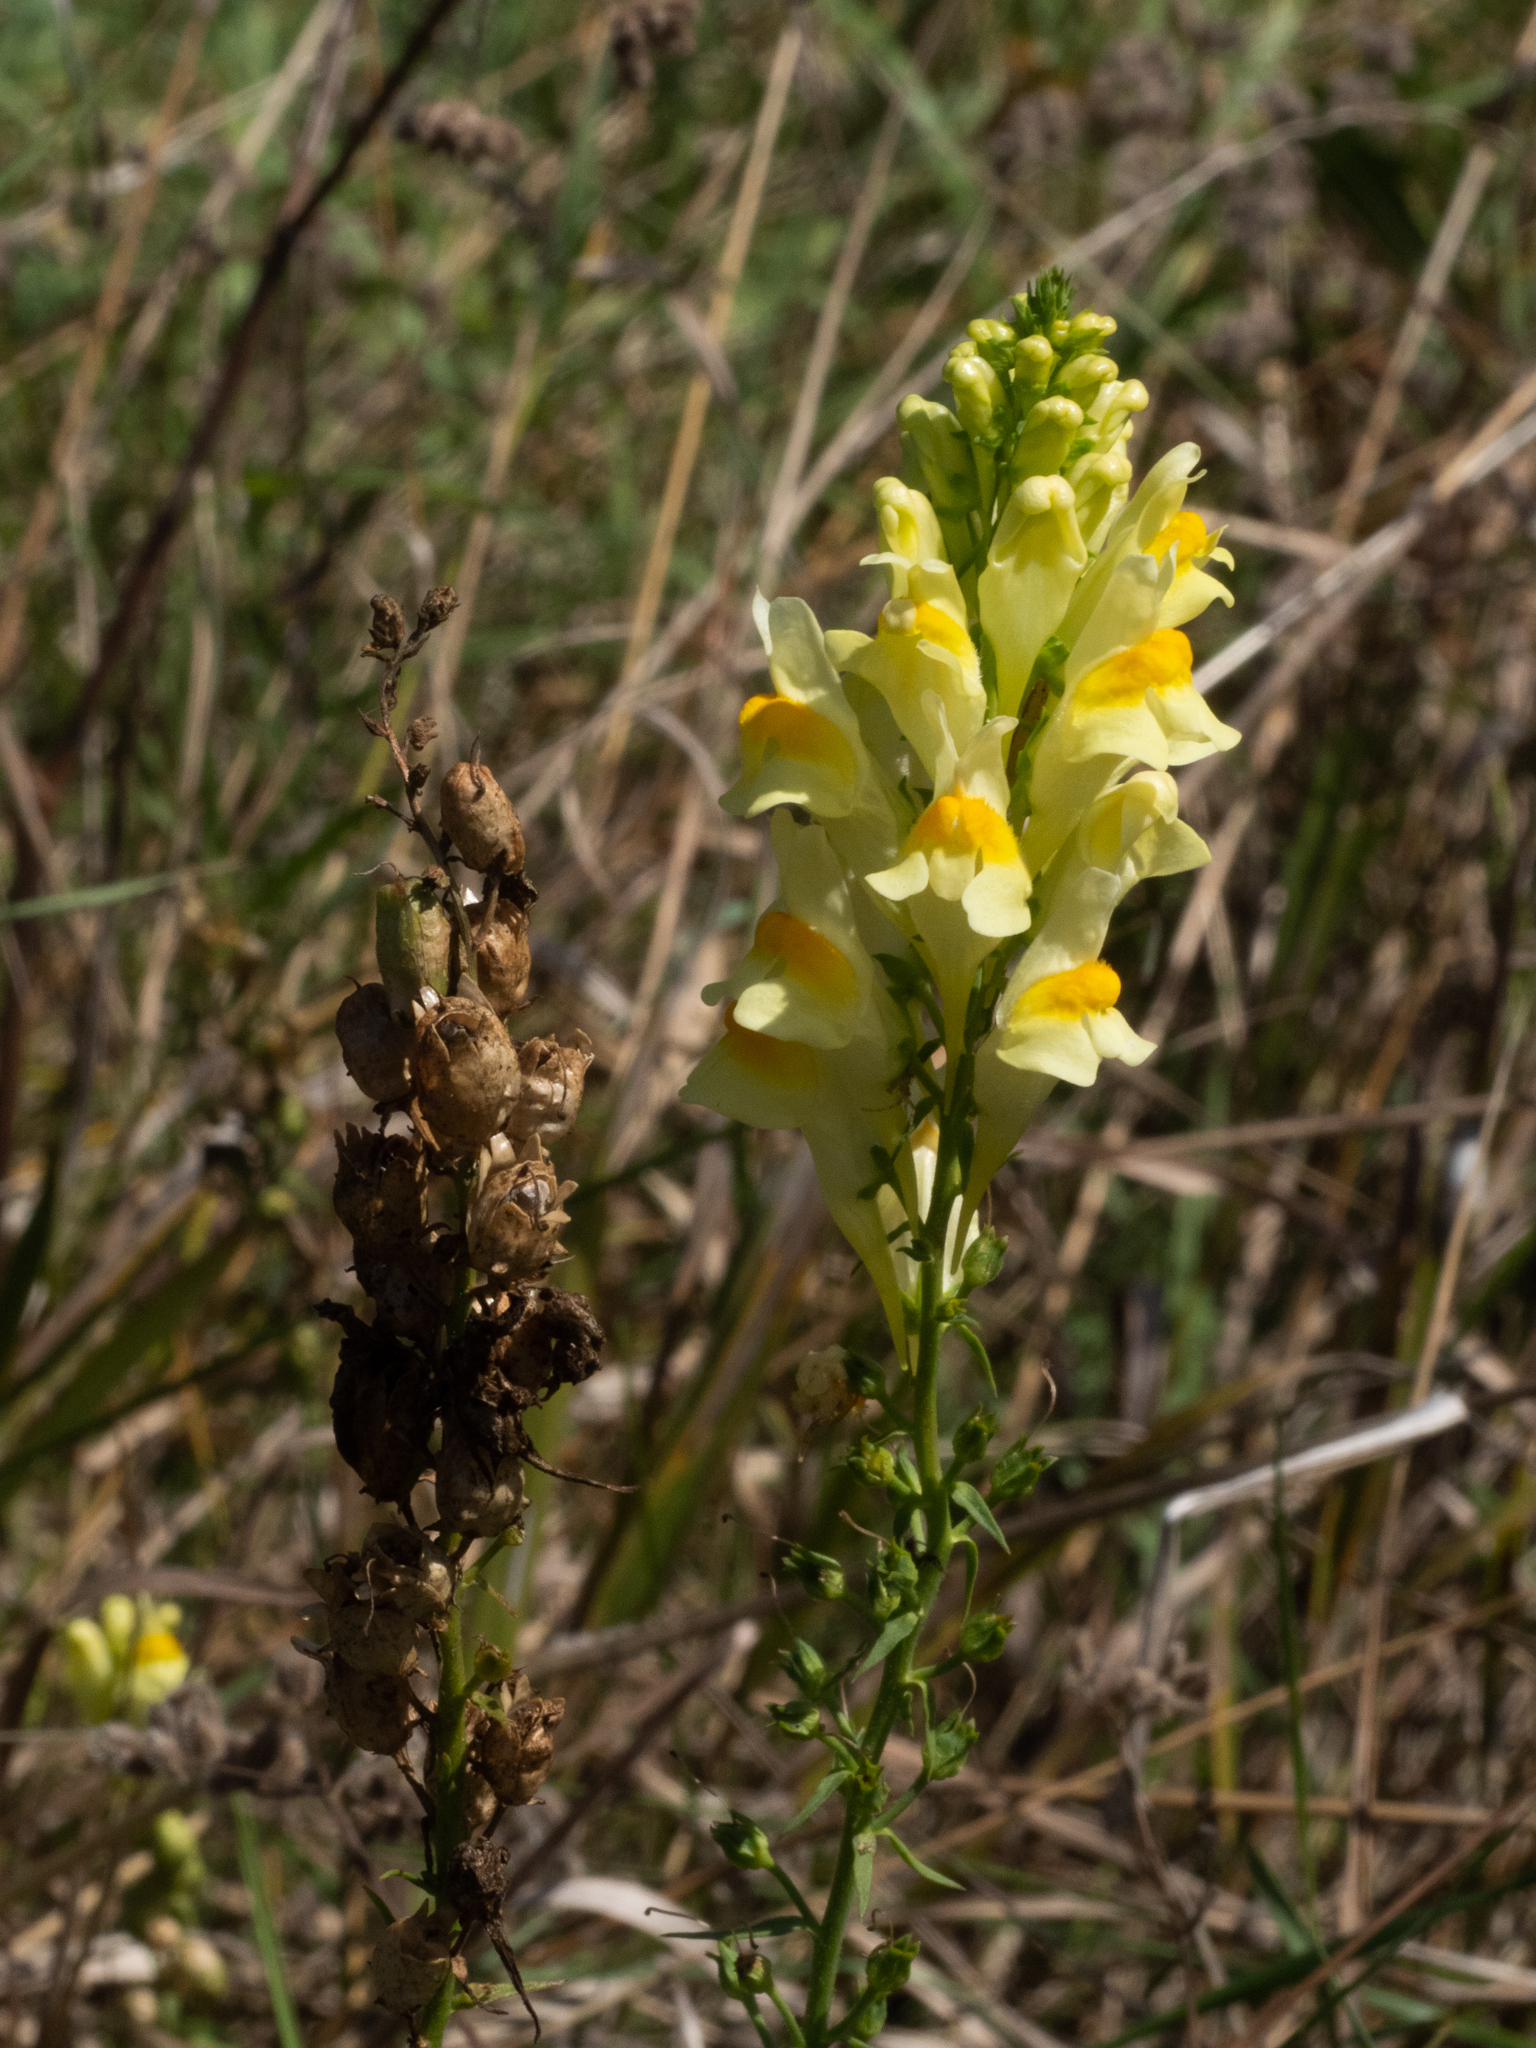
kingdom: Plantae
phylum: Tracheophyta
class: Magnoliopsida
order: Lamiales
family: Plantaginaceae
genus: Linaria
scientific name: Linaria vulgaris
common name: Butter and eggs
